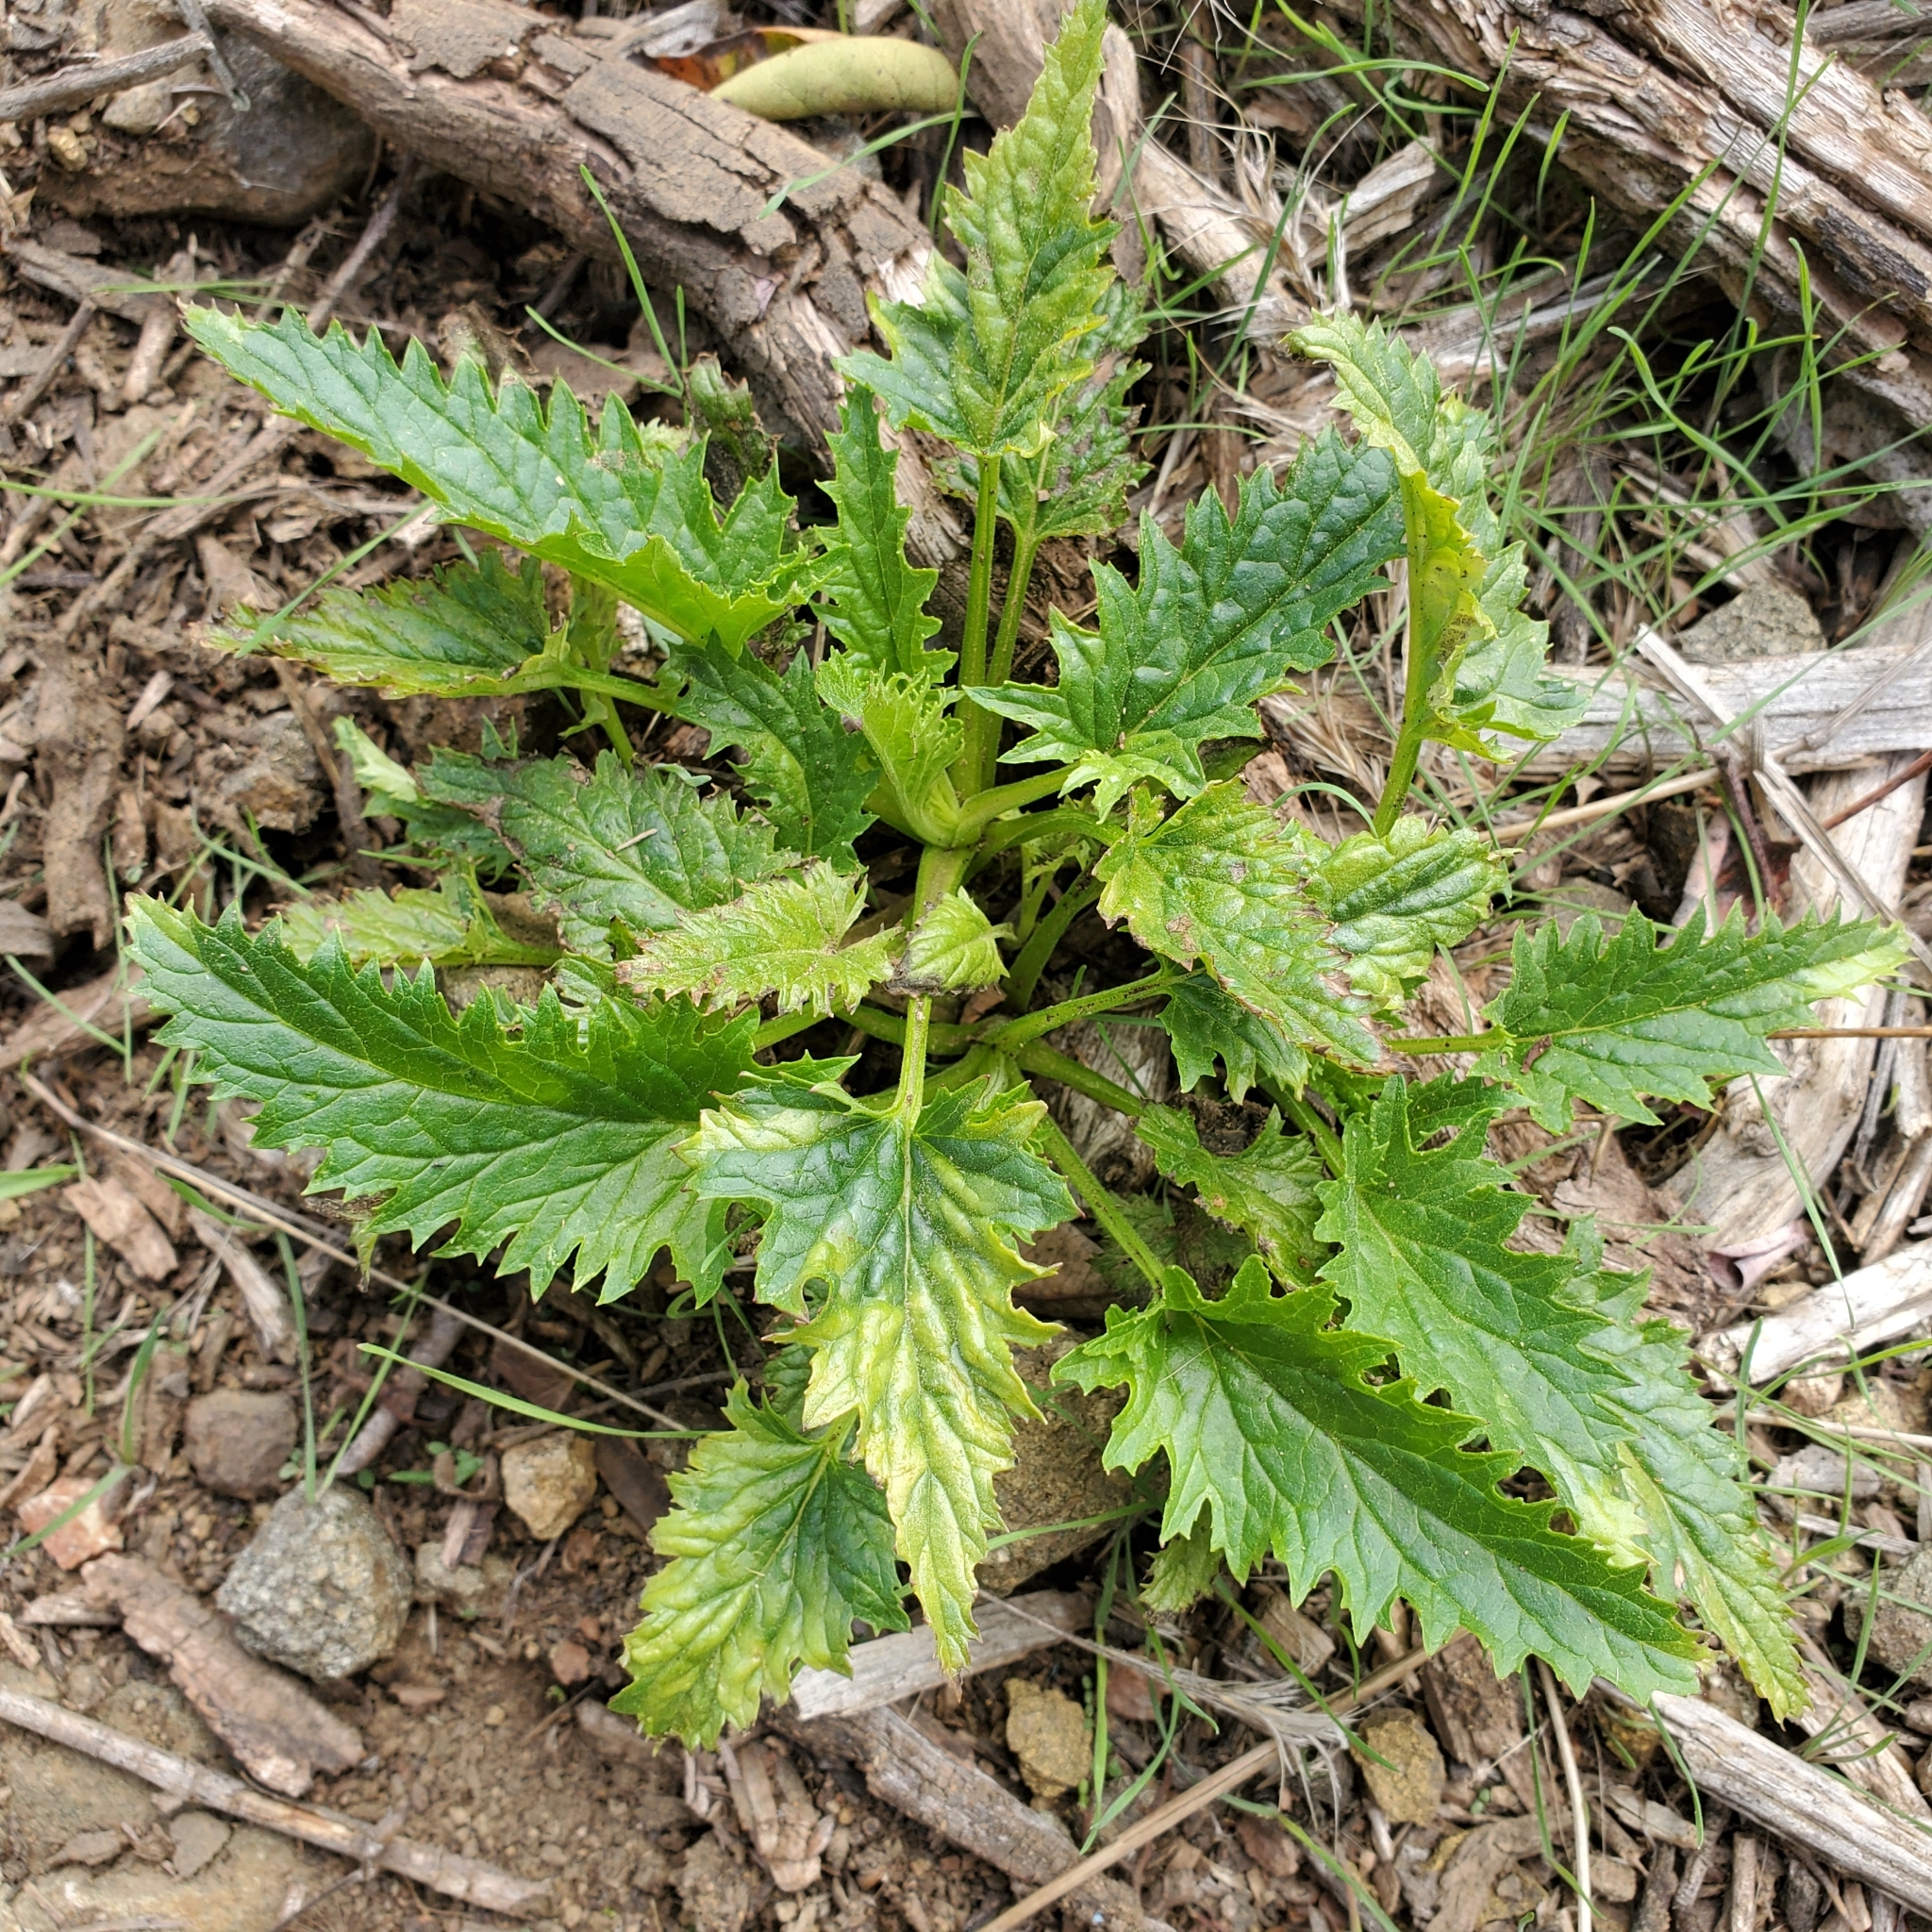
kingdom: Plantae
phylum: Tracheophyta
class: Magnoliopsida
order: Lamiales
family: Scrophulariaceae
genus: Scrophularia
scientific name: Scrophularia californica
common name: California figwort
